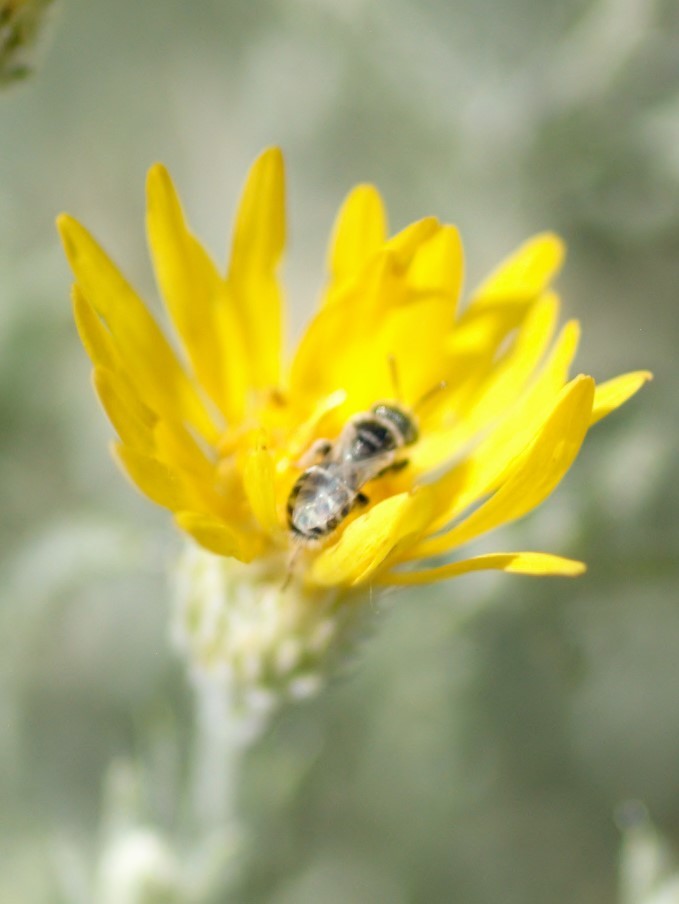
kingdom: Animalia
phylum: Arthropoda
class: Insecta
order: Hymenoptera
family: Andrenidae
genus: Perdita
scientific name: Perdita
